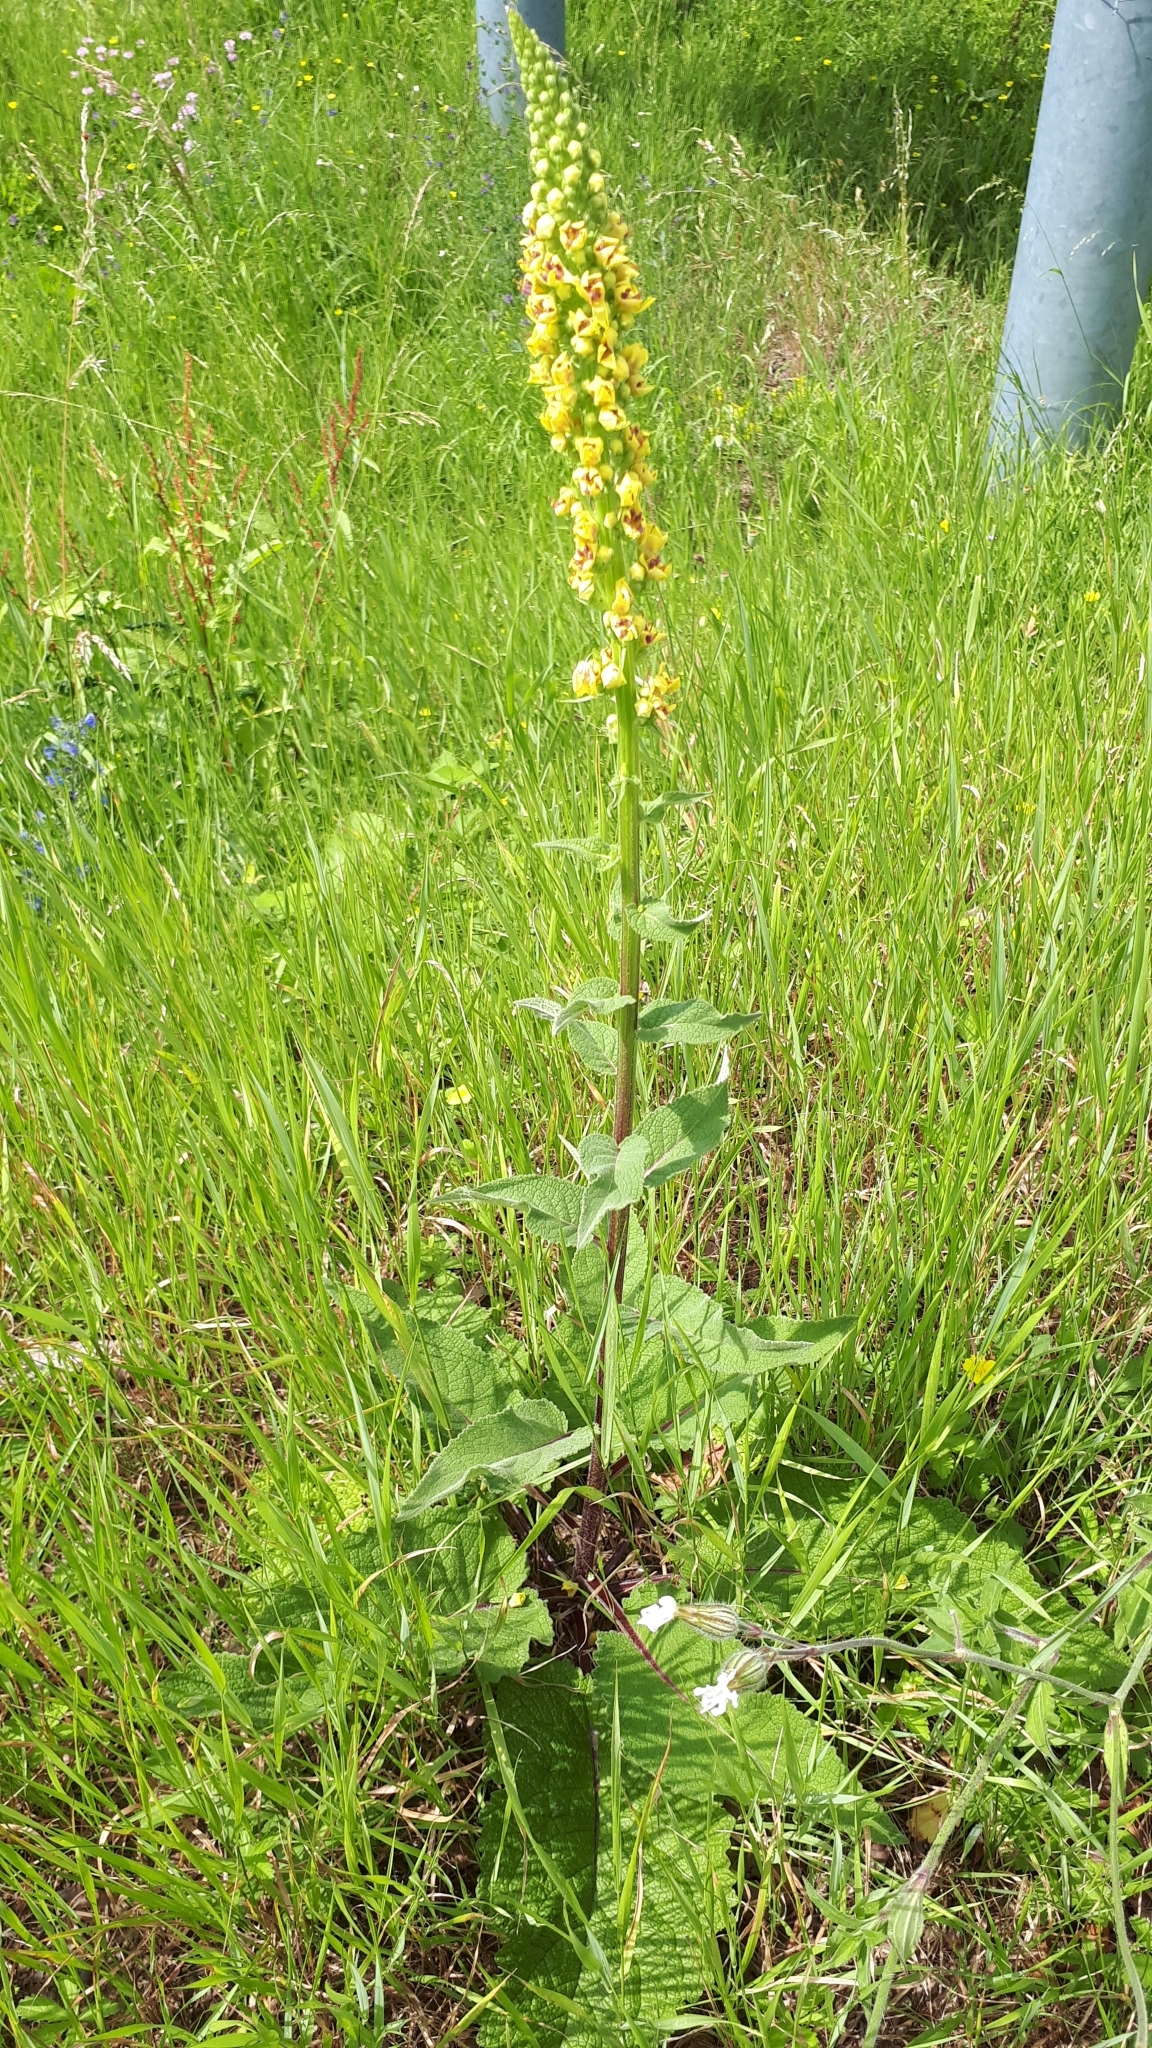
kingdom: Plantae
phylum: Tracheophyta
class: Magnoliopsida
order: Lamiales
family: Scrophulariaceae
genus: Verbascum
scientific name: Verbascum nigrum
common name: Dark mullein
